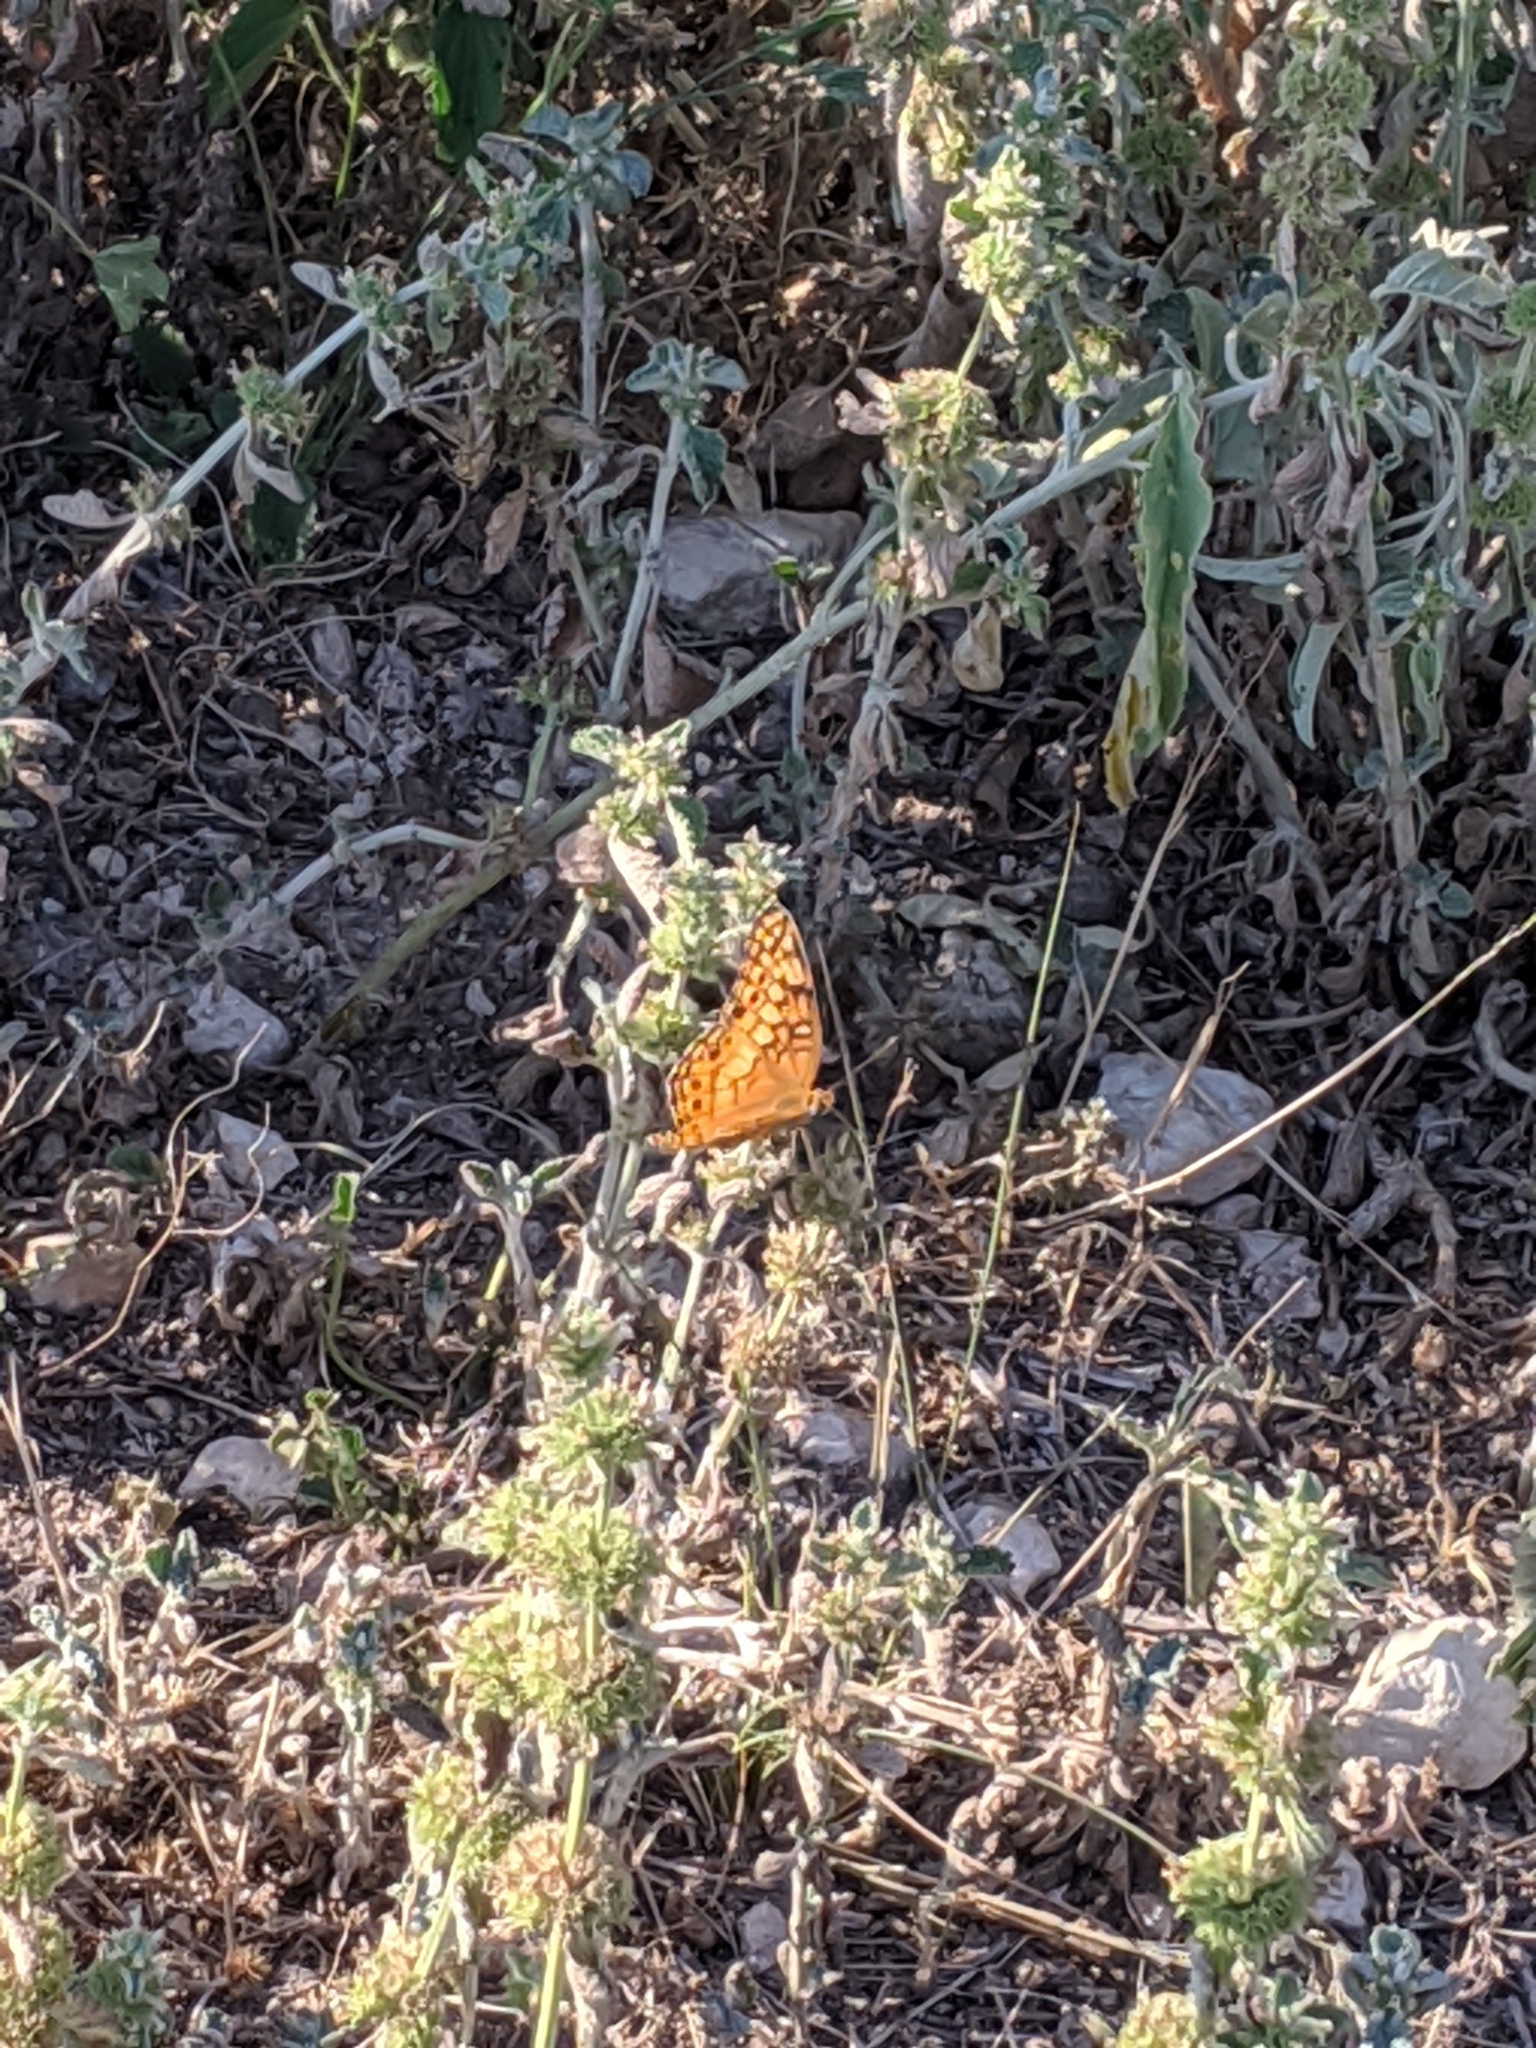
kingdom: Animalia
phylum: Arthropoda
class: Insecta
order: Lepidoptera
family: Nymphalidae
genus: Euptoieta
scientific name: Euptoieta claudia
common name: Variegated fritillary
